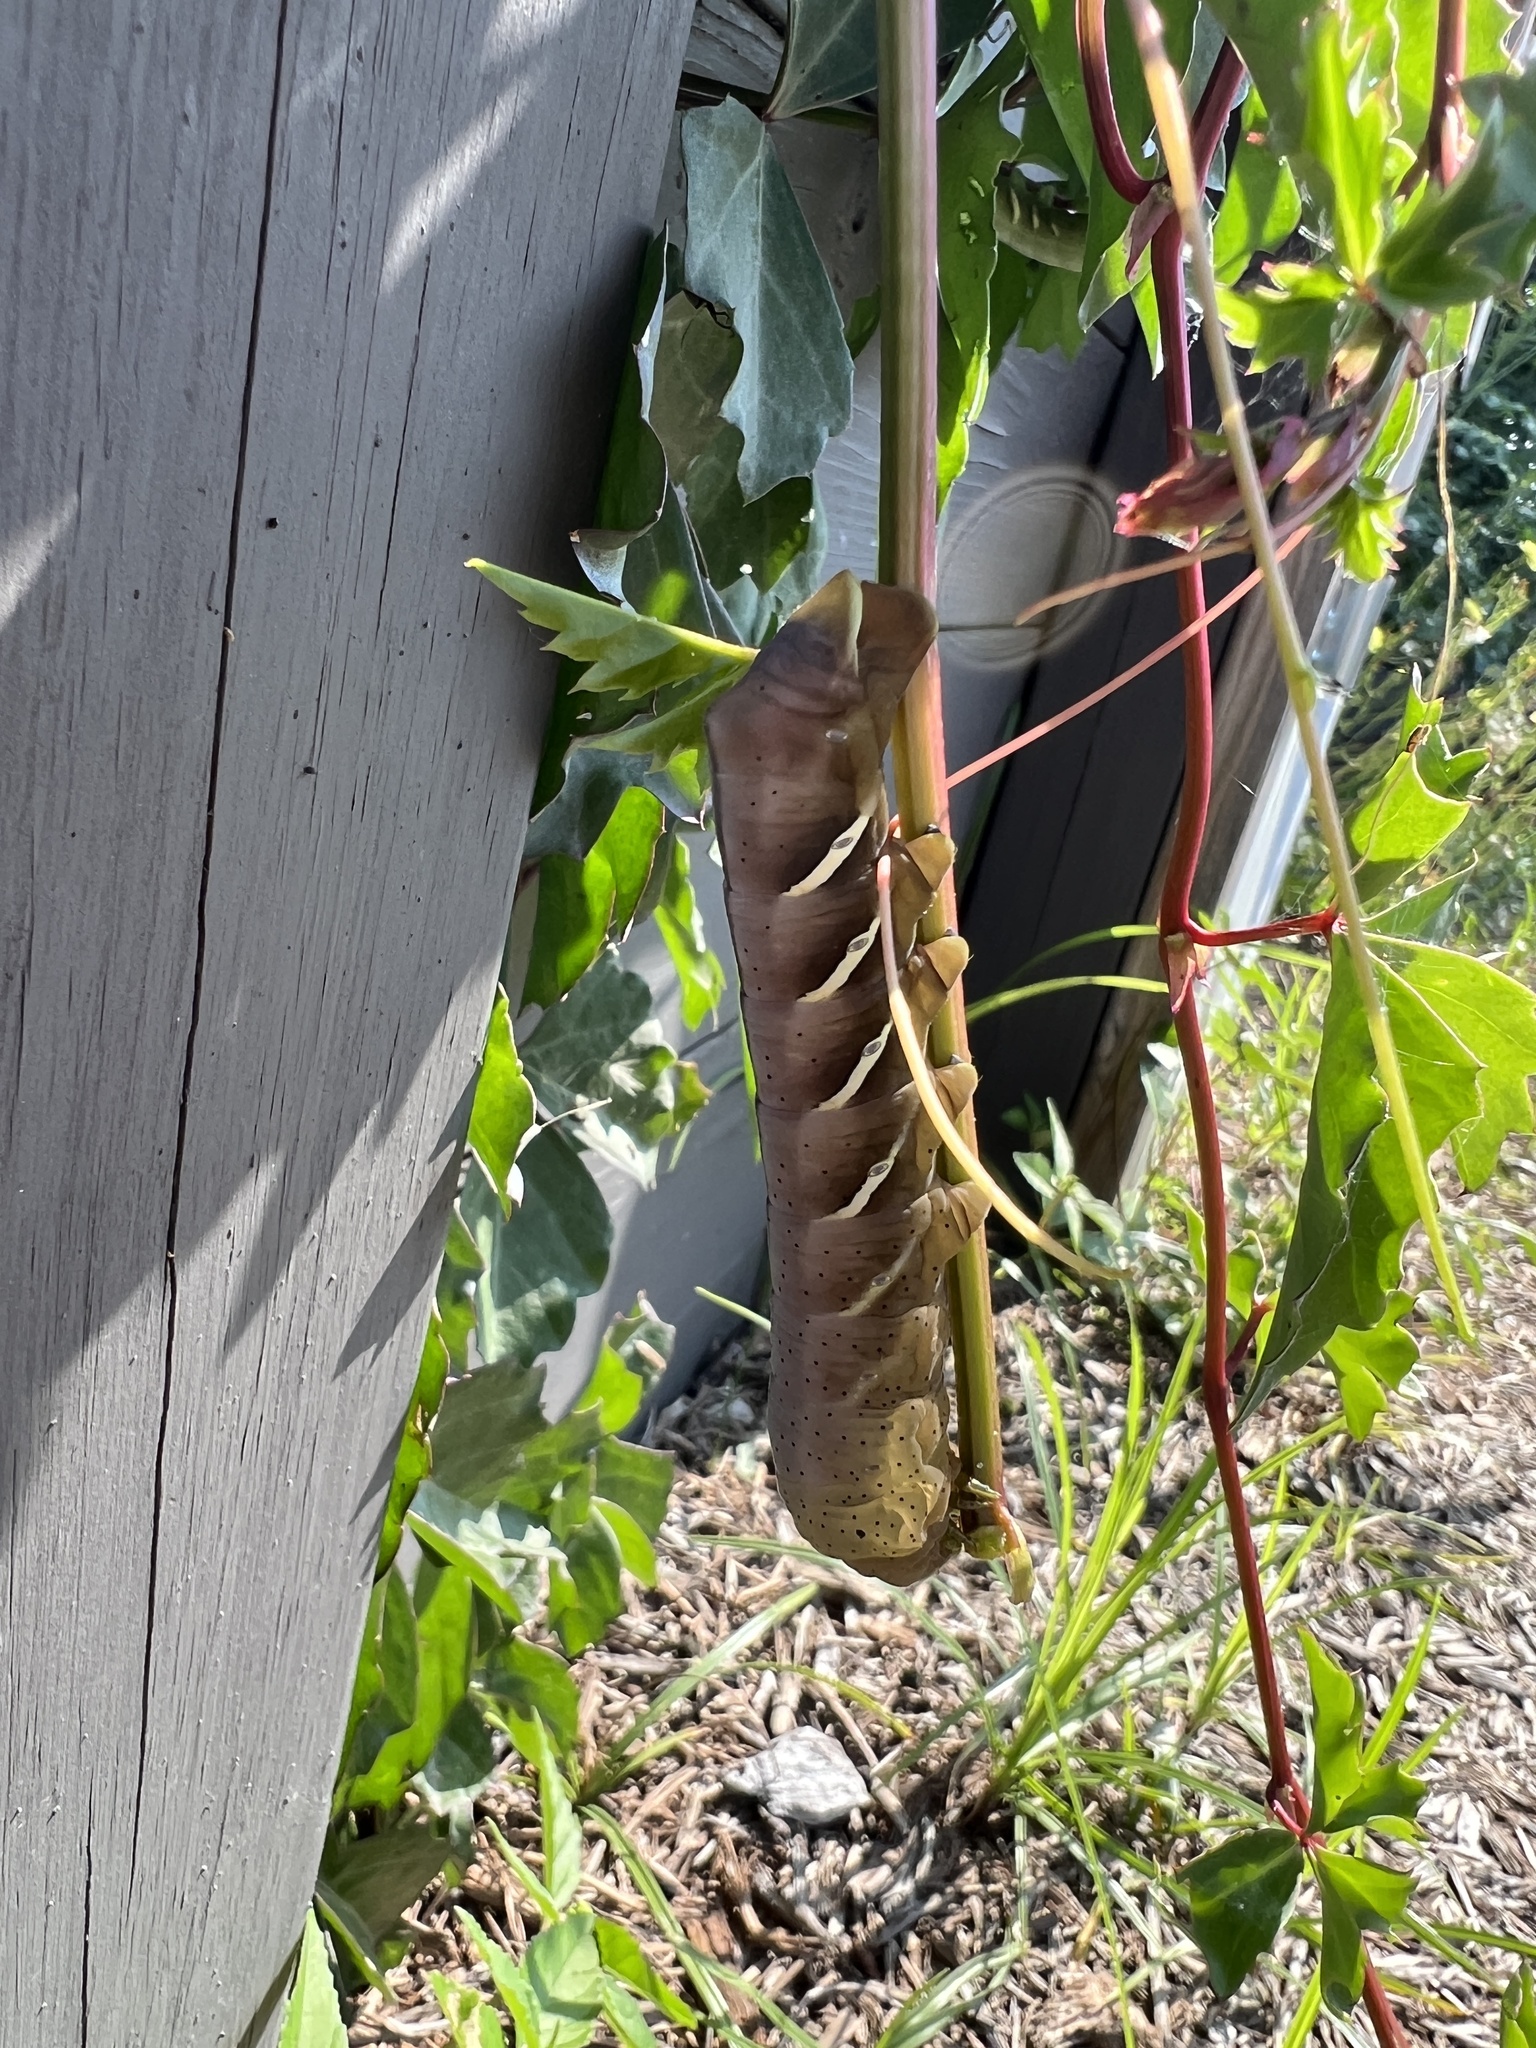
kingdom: Animalia
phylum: Arthropoda
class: Insecta
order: Lepidoptera
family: Sphingidae
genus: Eumorpha
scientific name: Eumorpha vitis
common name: Vine sphinx
